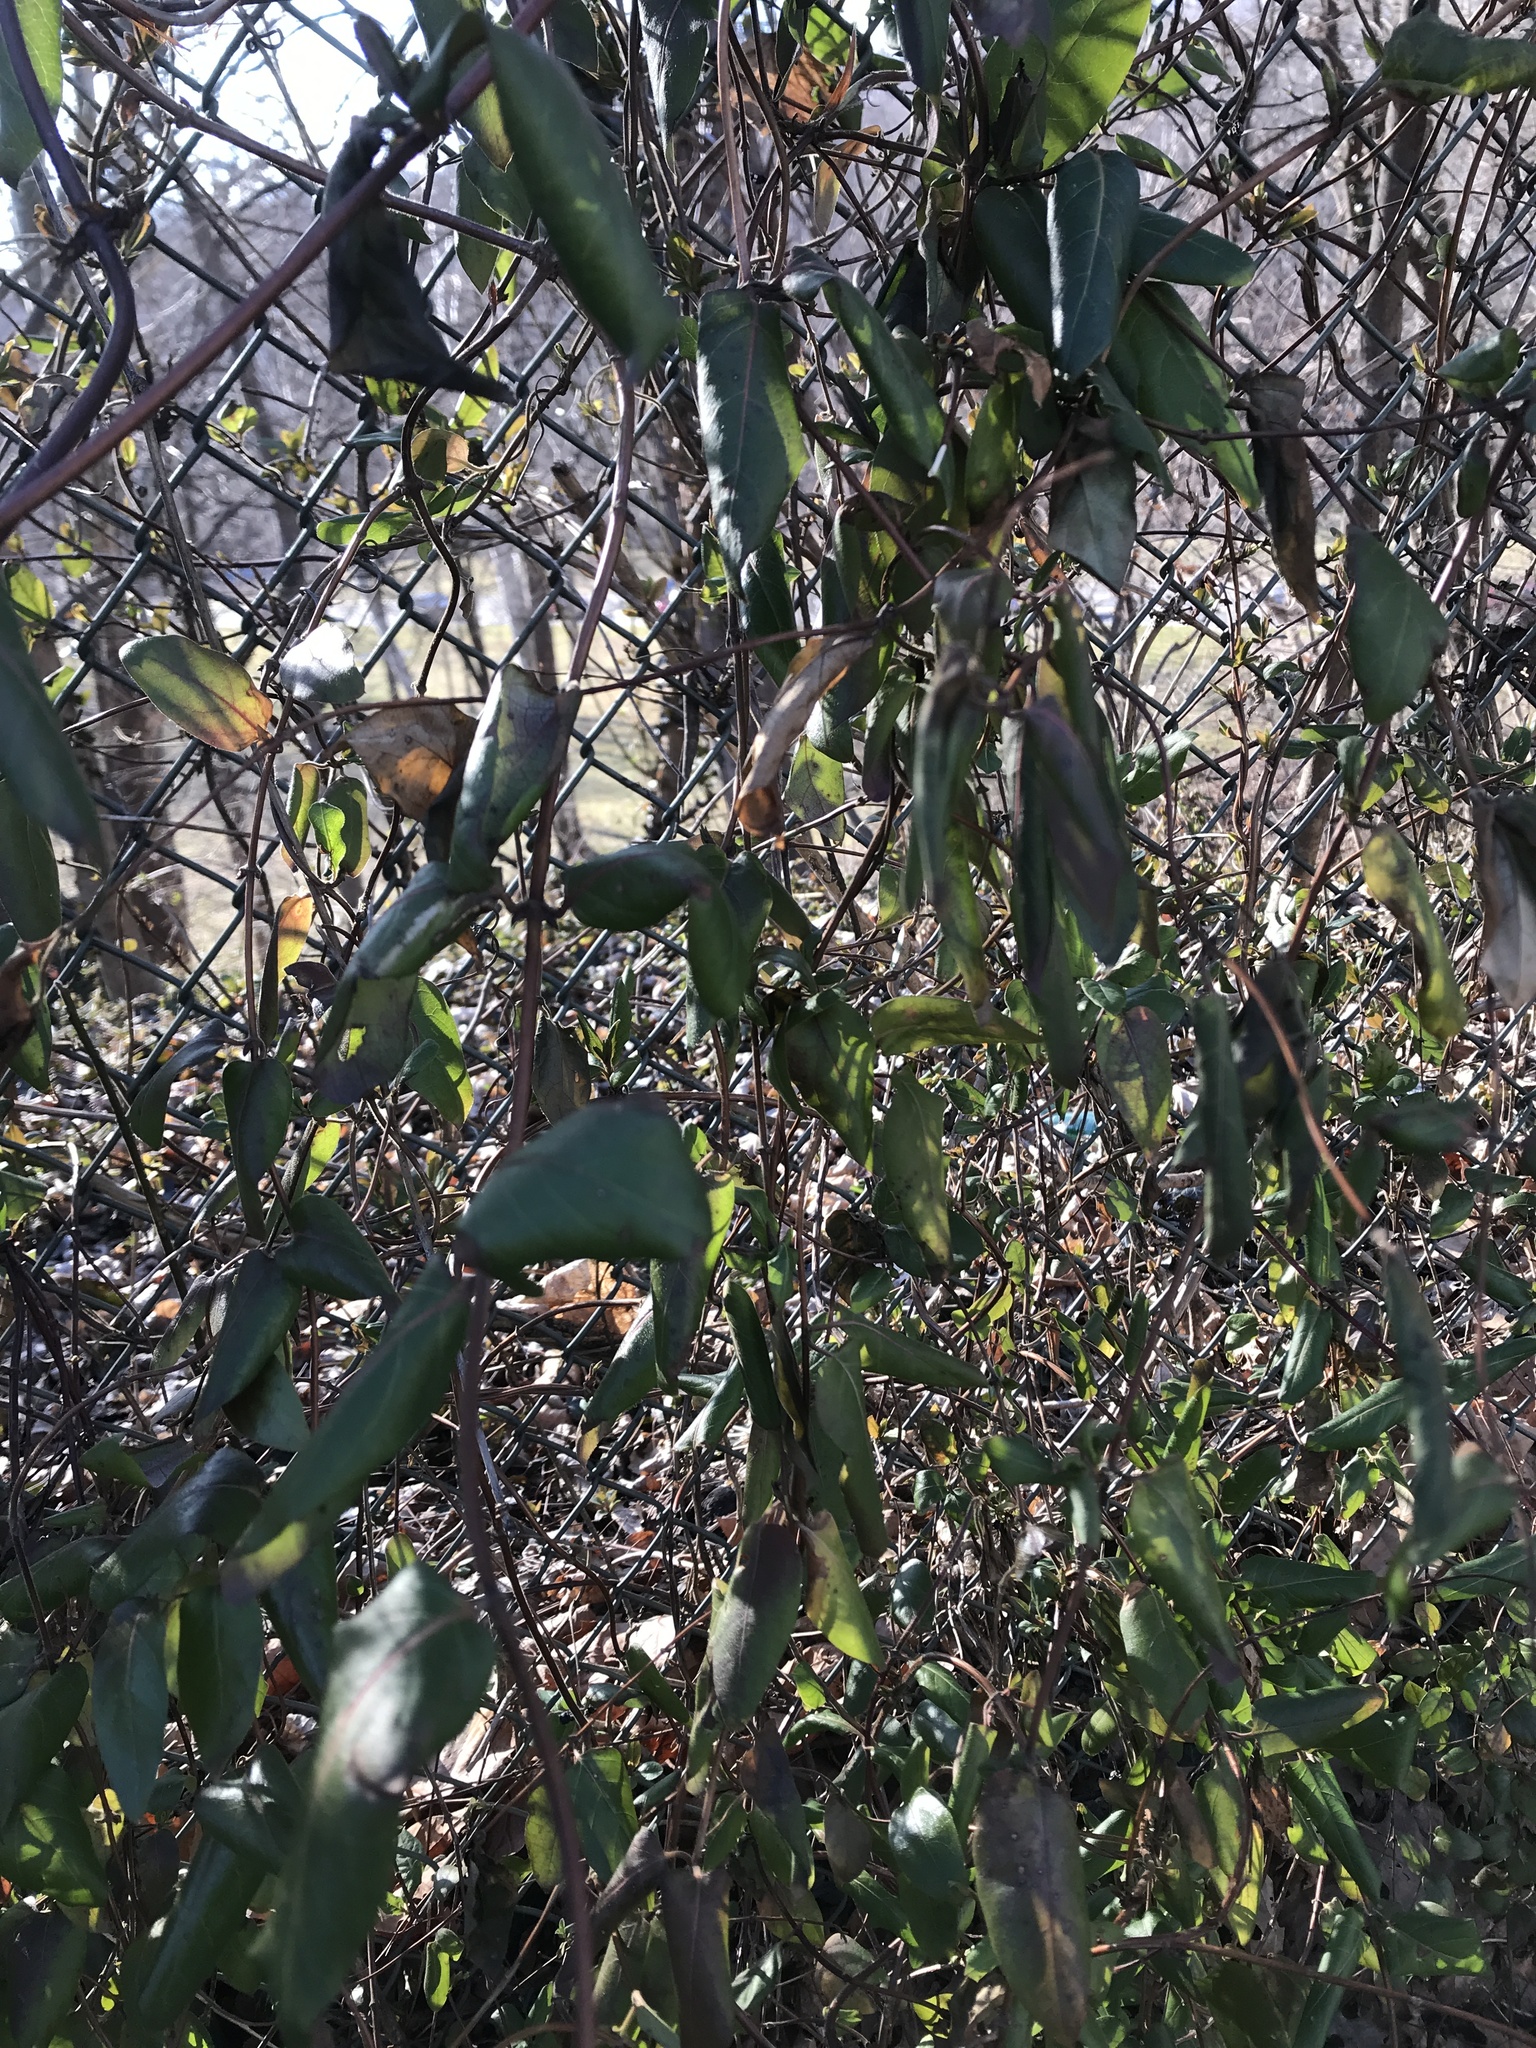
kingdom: Plantae
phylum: Tracheophyta
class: Magnoliopsida
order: Dipsacales
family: Caprifoliaceae
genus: Lonicera
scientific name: Lonicera japonica
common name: Japanese honeysuckle
